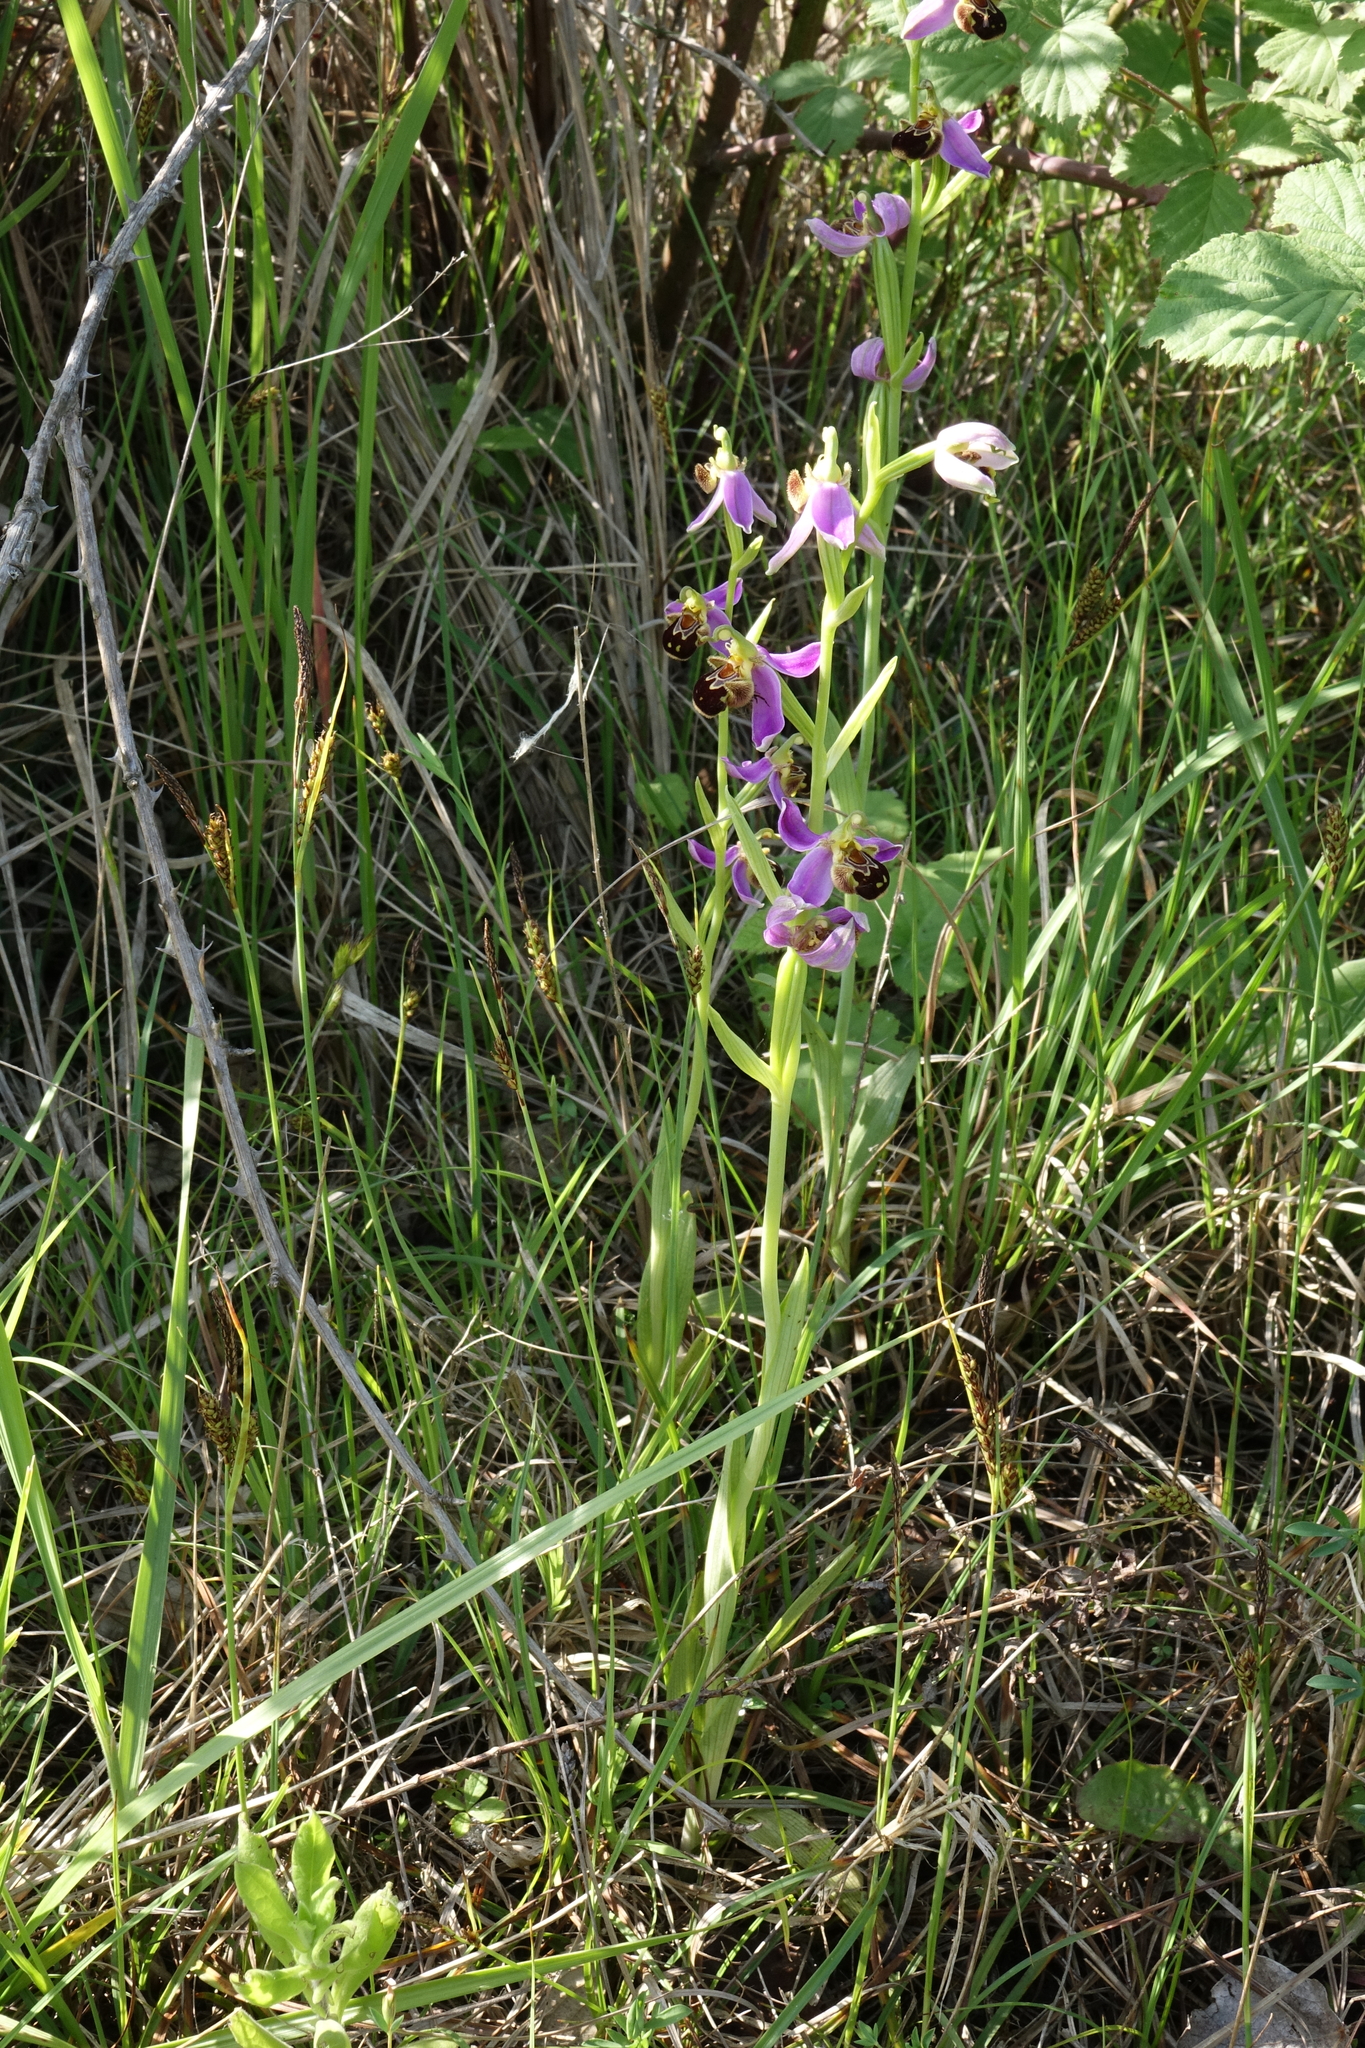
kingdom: Plantae
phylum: Tracheophyta
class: Liliopsida
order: Asparagales
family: Orchidaceae
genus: Ophrys
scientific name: Ophrys apifera
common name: Bee orchid
